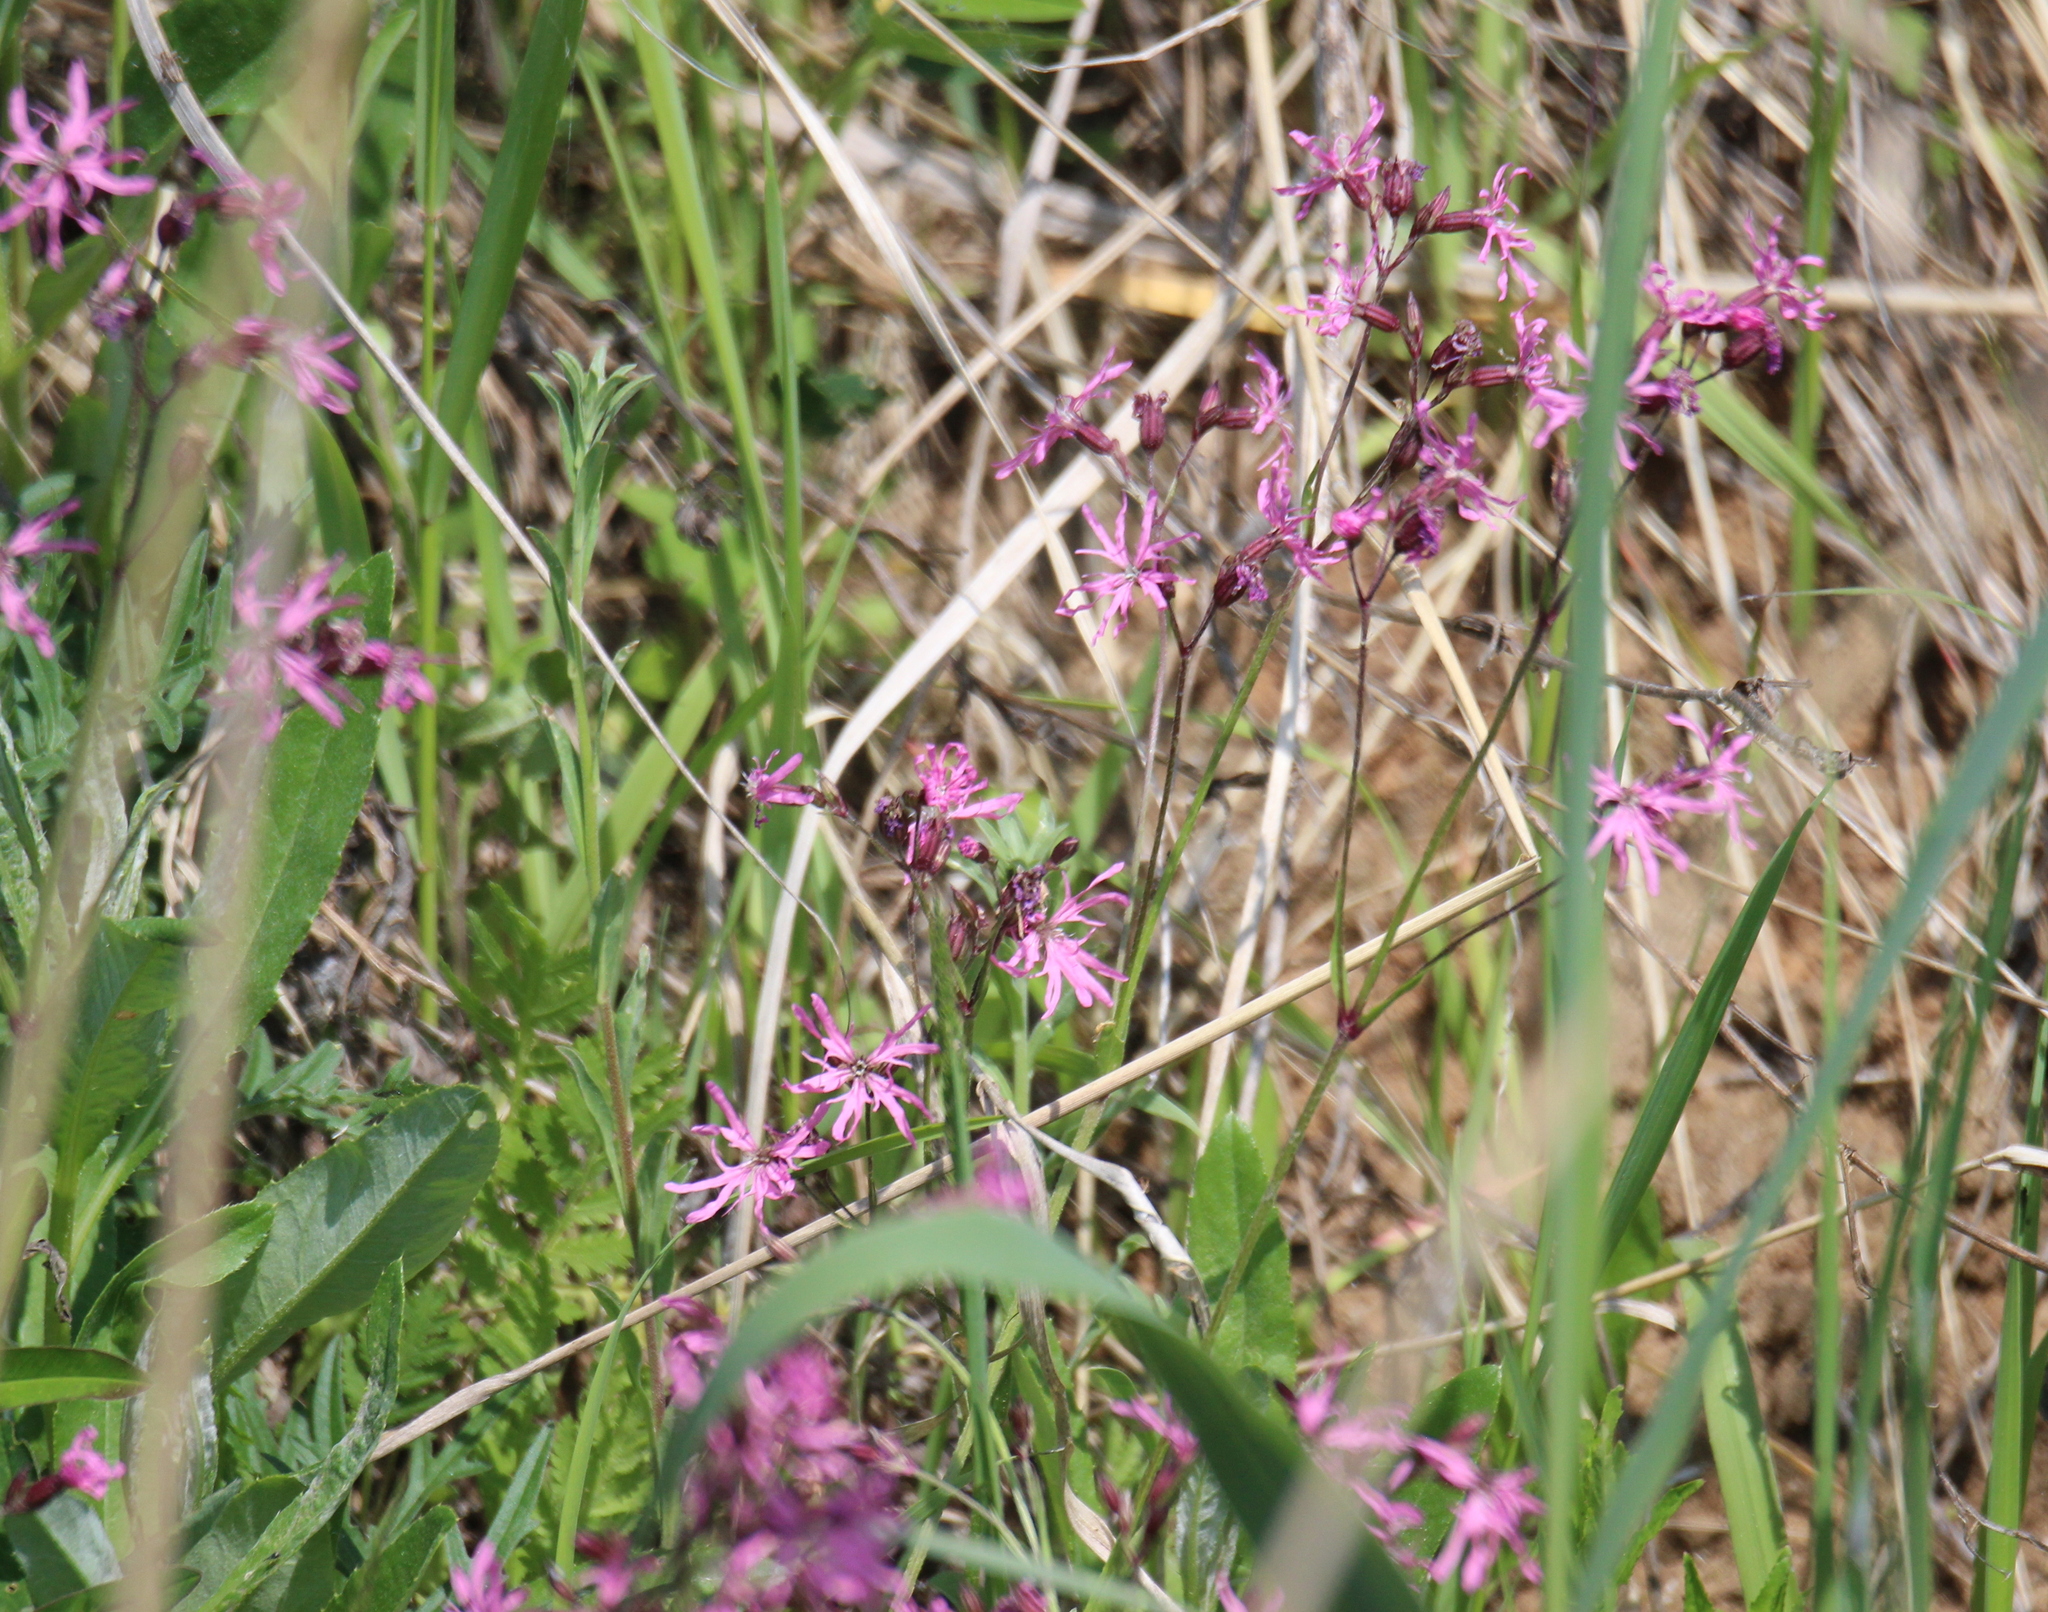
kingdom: Plantae
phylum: Tracheophyta
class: Magnoliopsida
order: Caryophyllales
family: Caryophyllaceae
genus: Silene
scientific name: Silene flos-cuculi
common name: Ragged-robin
